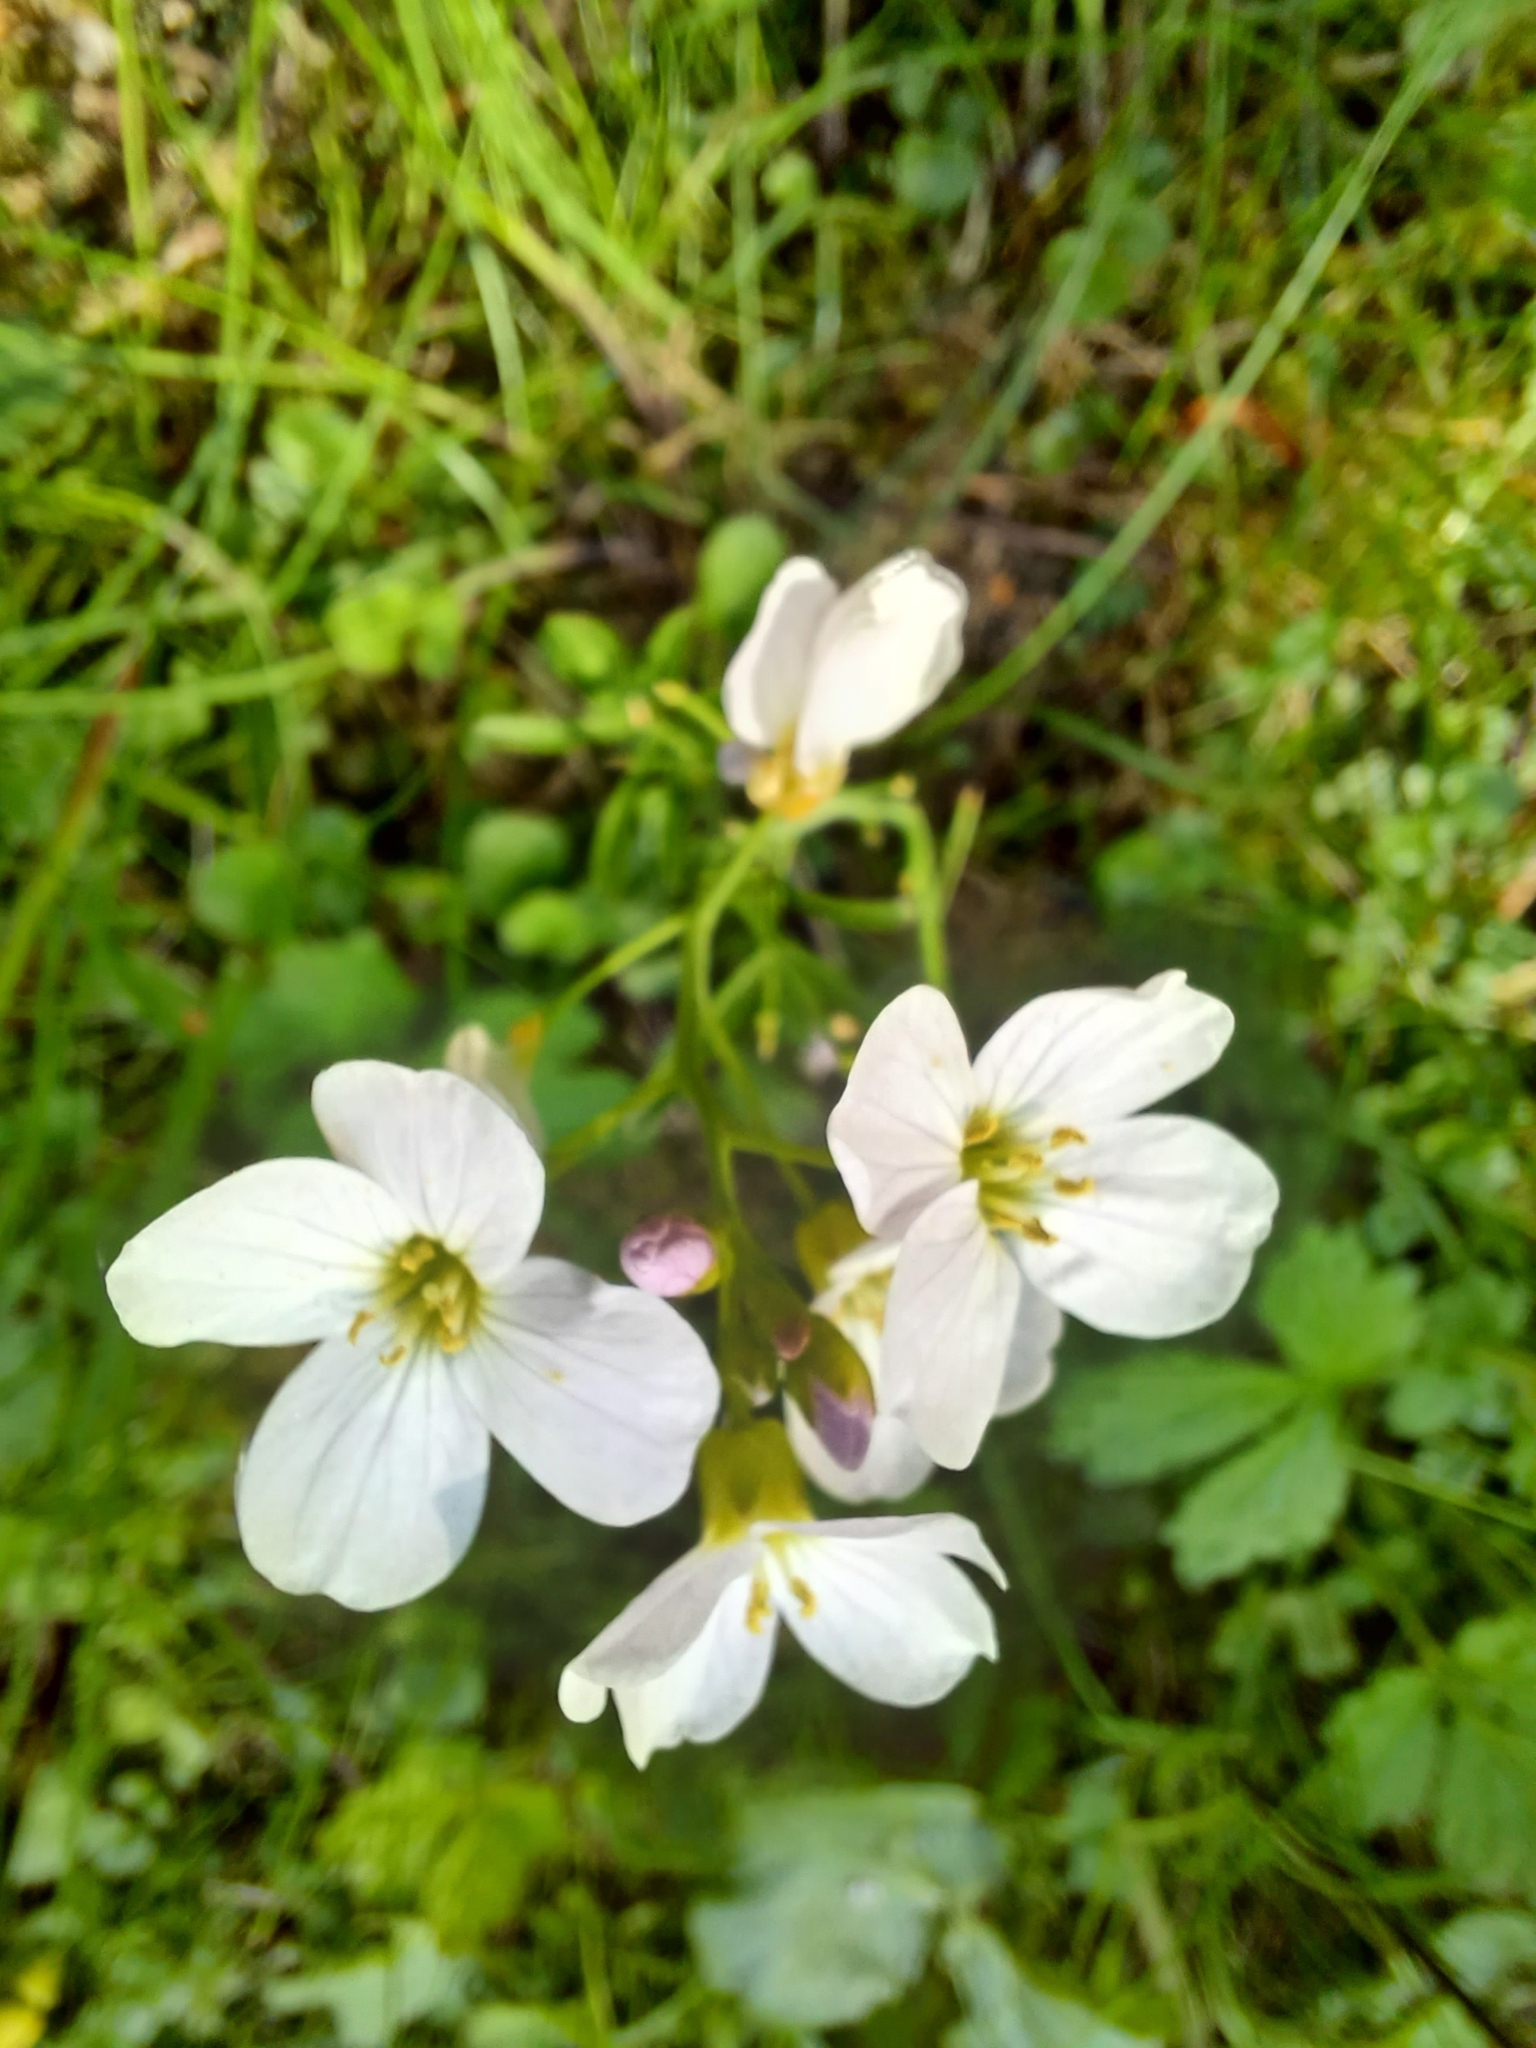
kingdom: Plantae
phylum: Tracheophyta
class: Magnoliopsida
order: Brassicales
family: Brassicaceae
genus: Cardamine
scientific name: Cardamine pratensis
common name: Cuckoo flower
